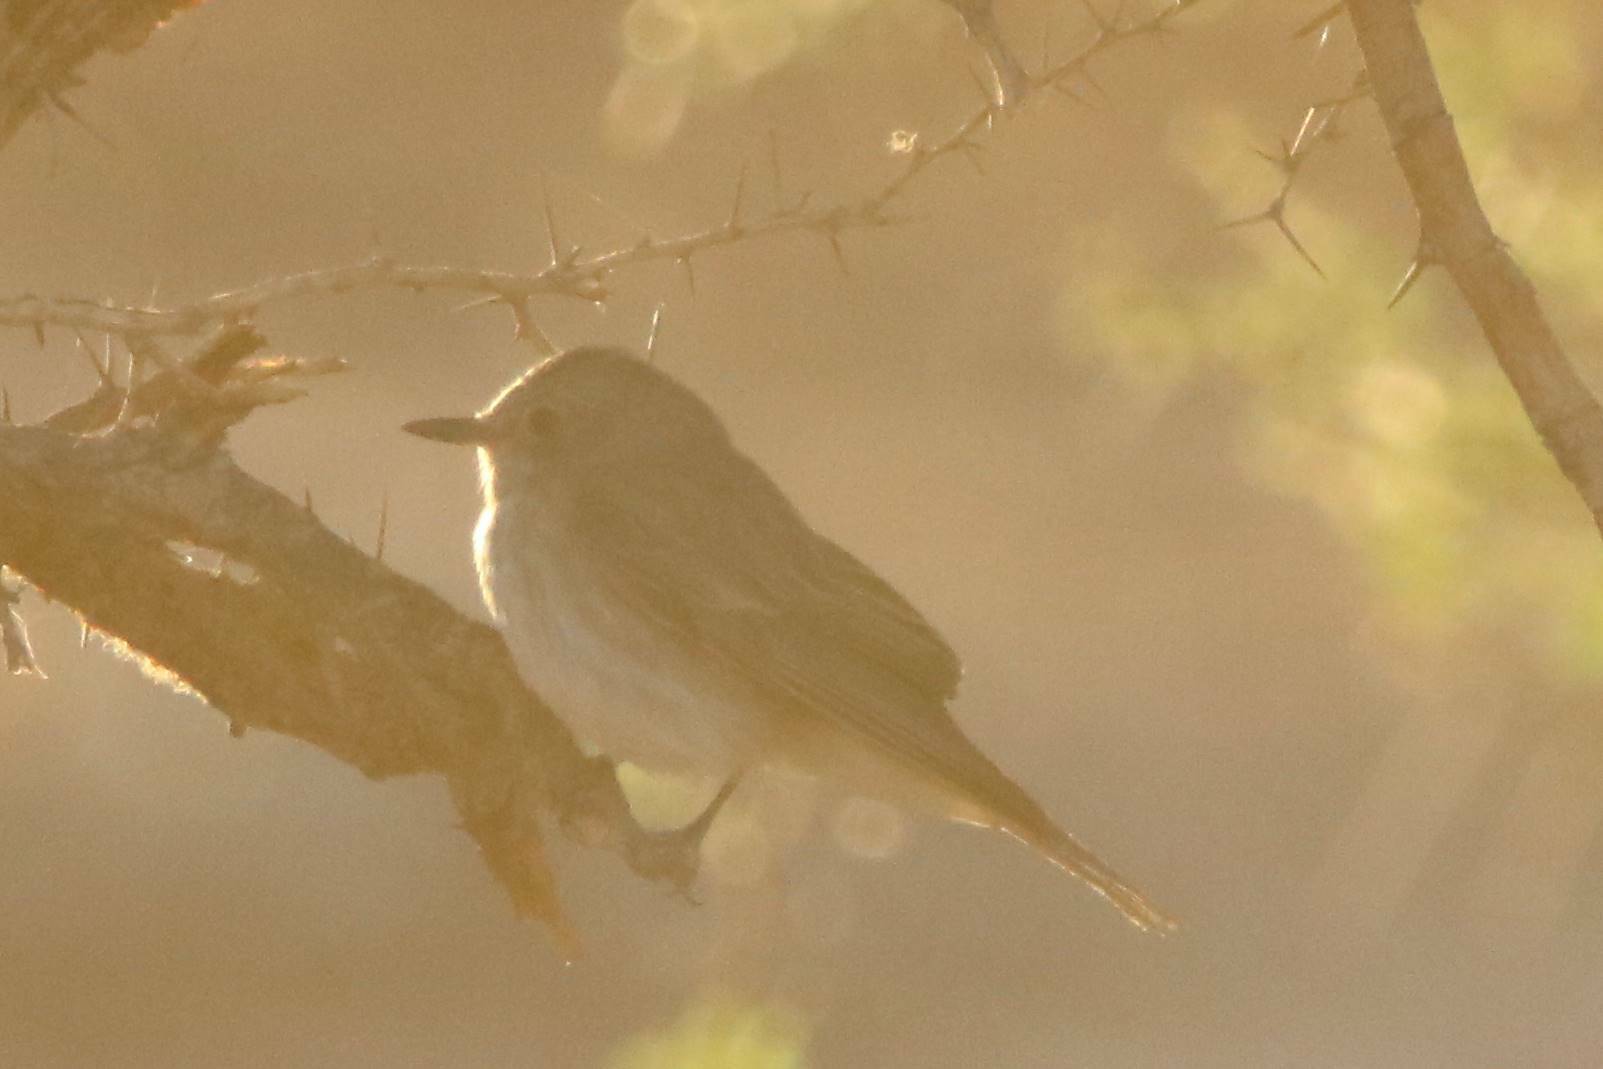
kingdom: Animalia
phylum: Chordata
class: Aves
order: Passeriformes
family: Muscicapidae
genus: Muscicapa
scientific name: Muscicapa striata
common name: Spotted flycatcher
